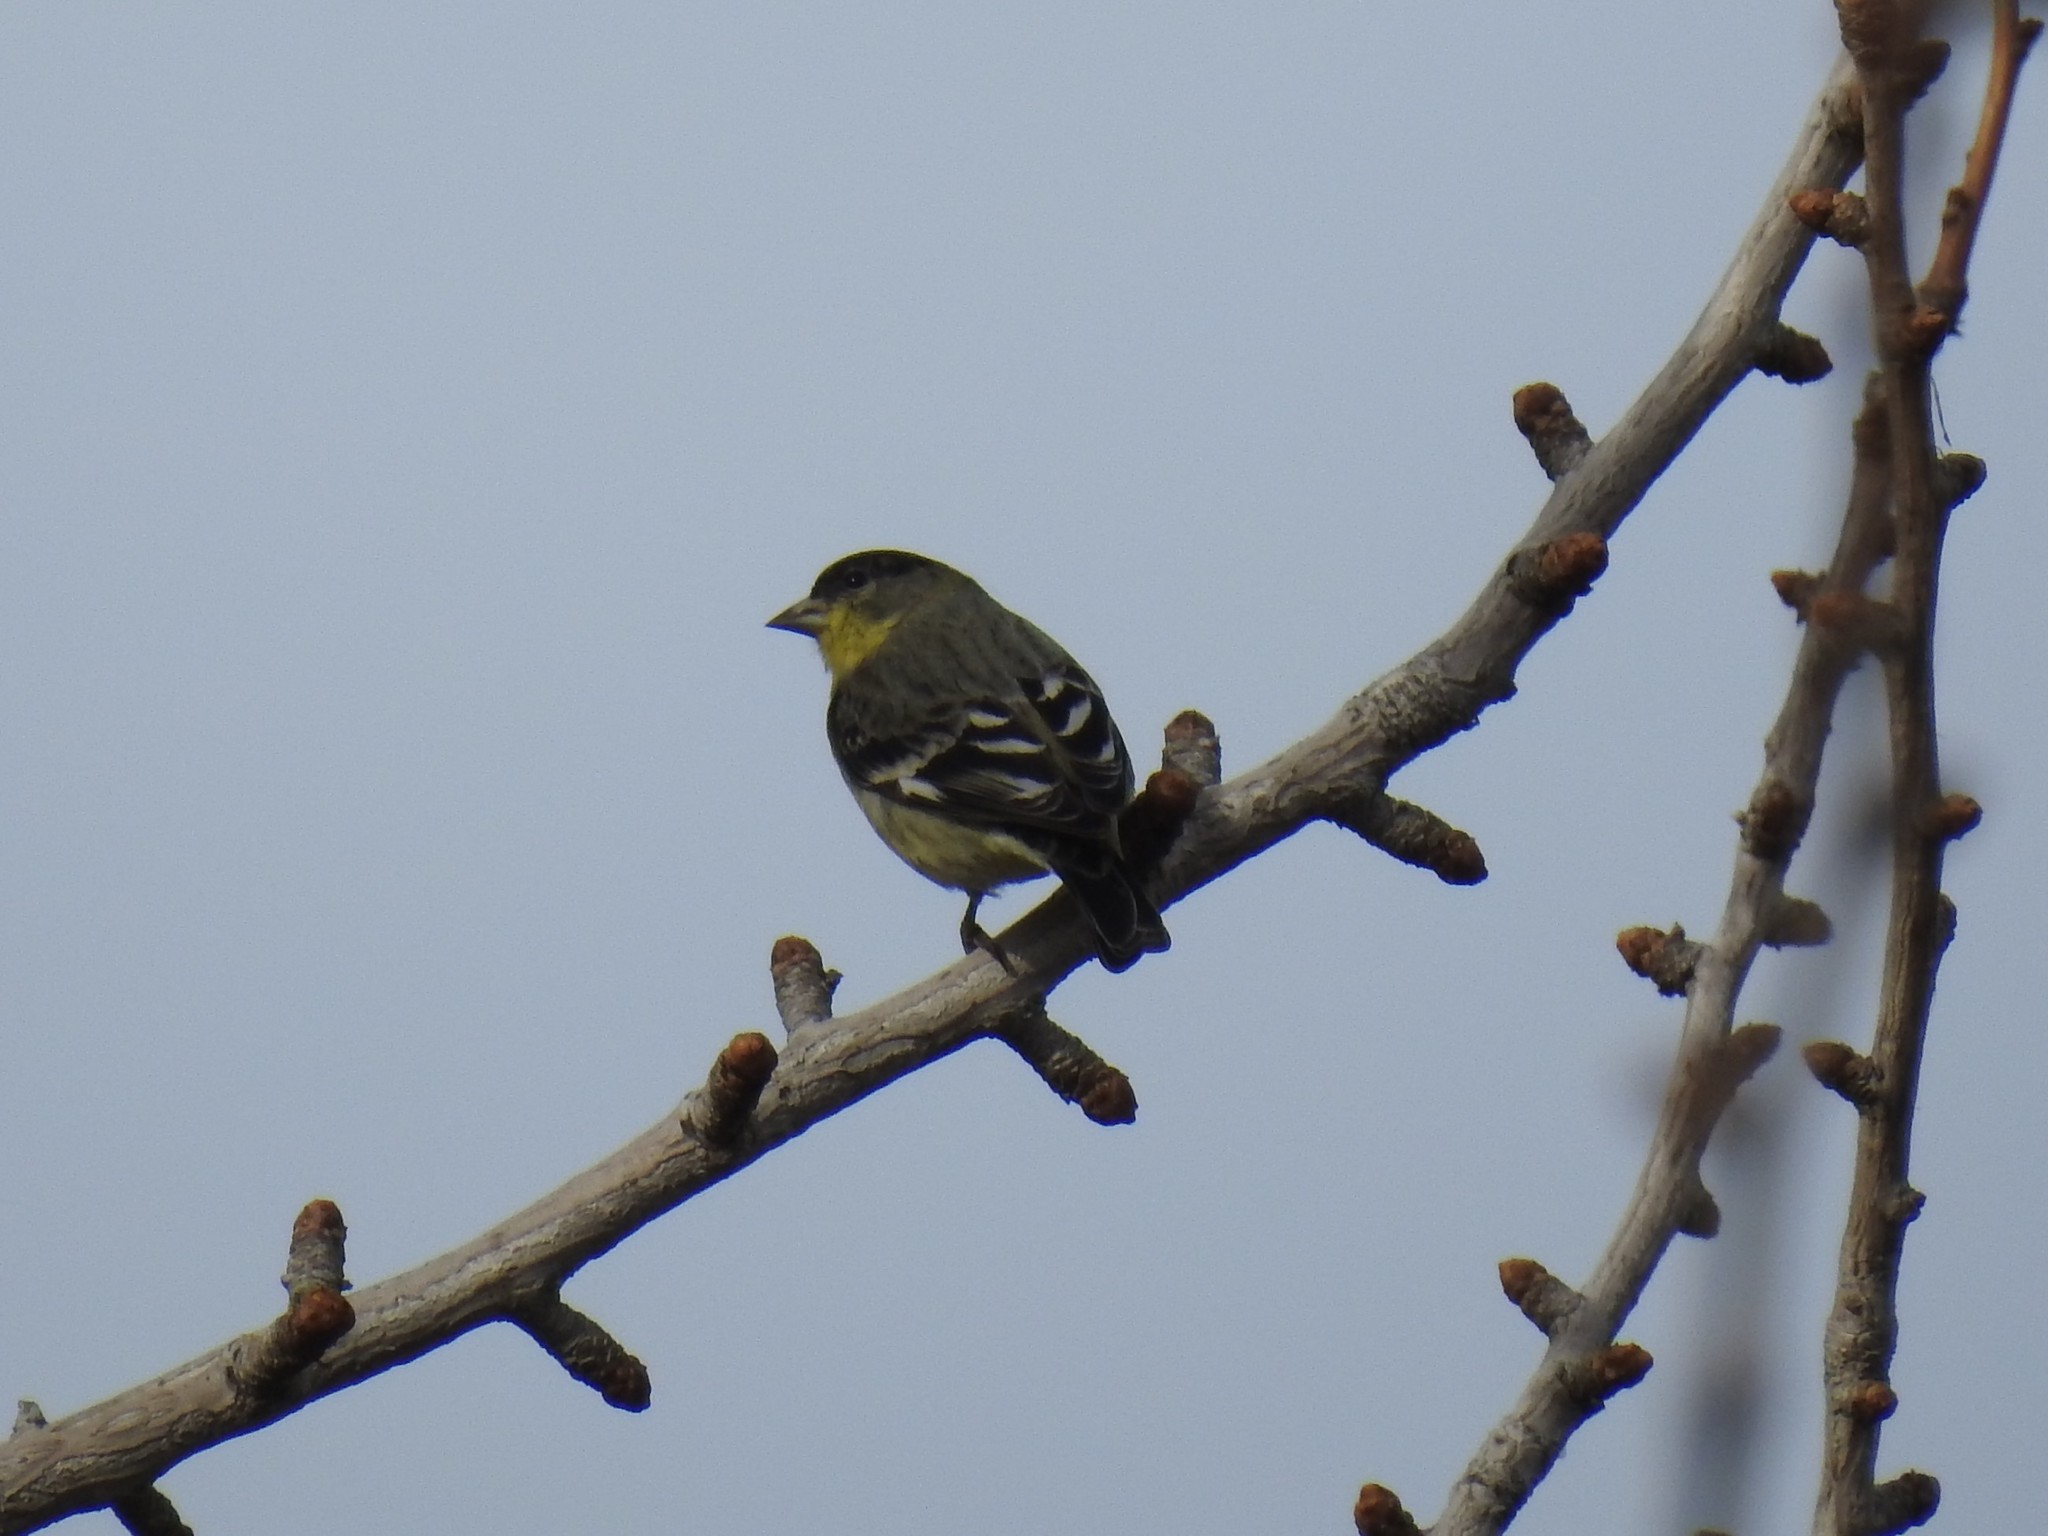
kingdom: Animalia
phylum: Chordata
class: Aves
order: Passeriformes
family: Fringillidae
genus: Spinus
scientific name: Spinus psaltria
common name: Lesser goldfinch
